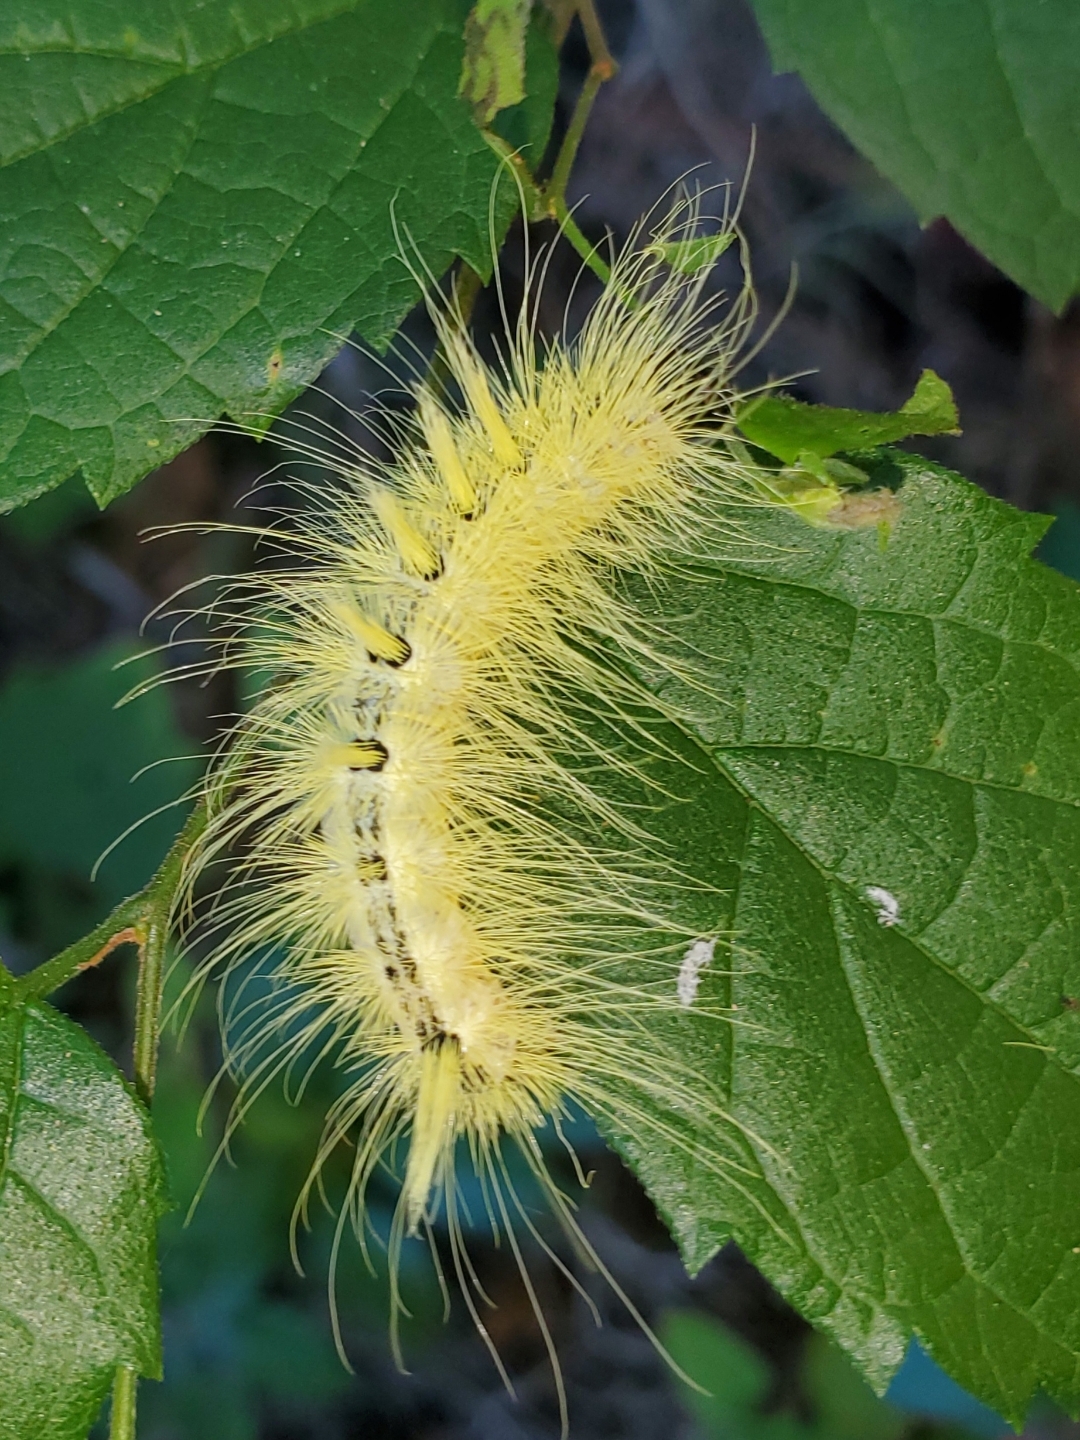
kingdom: Animalia
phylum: Arthropoda
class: Insecta
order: Lepidoptera
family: Noctuidae
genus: Acronicta
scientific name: Acronicta rubricoma
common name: Hackberry dagger
